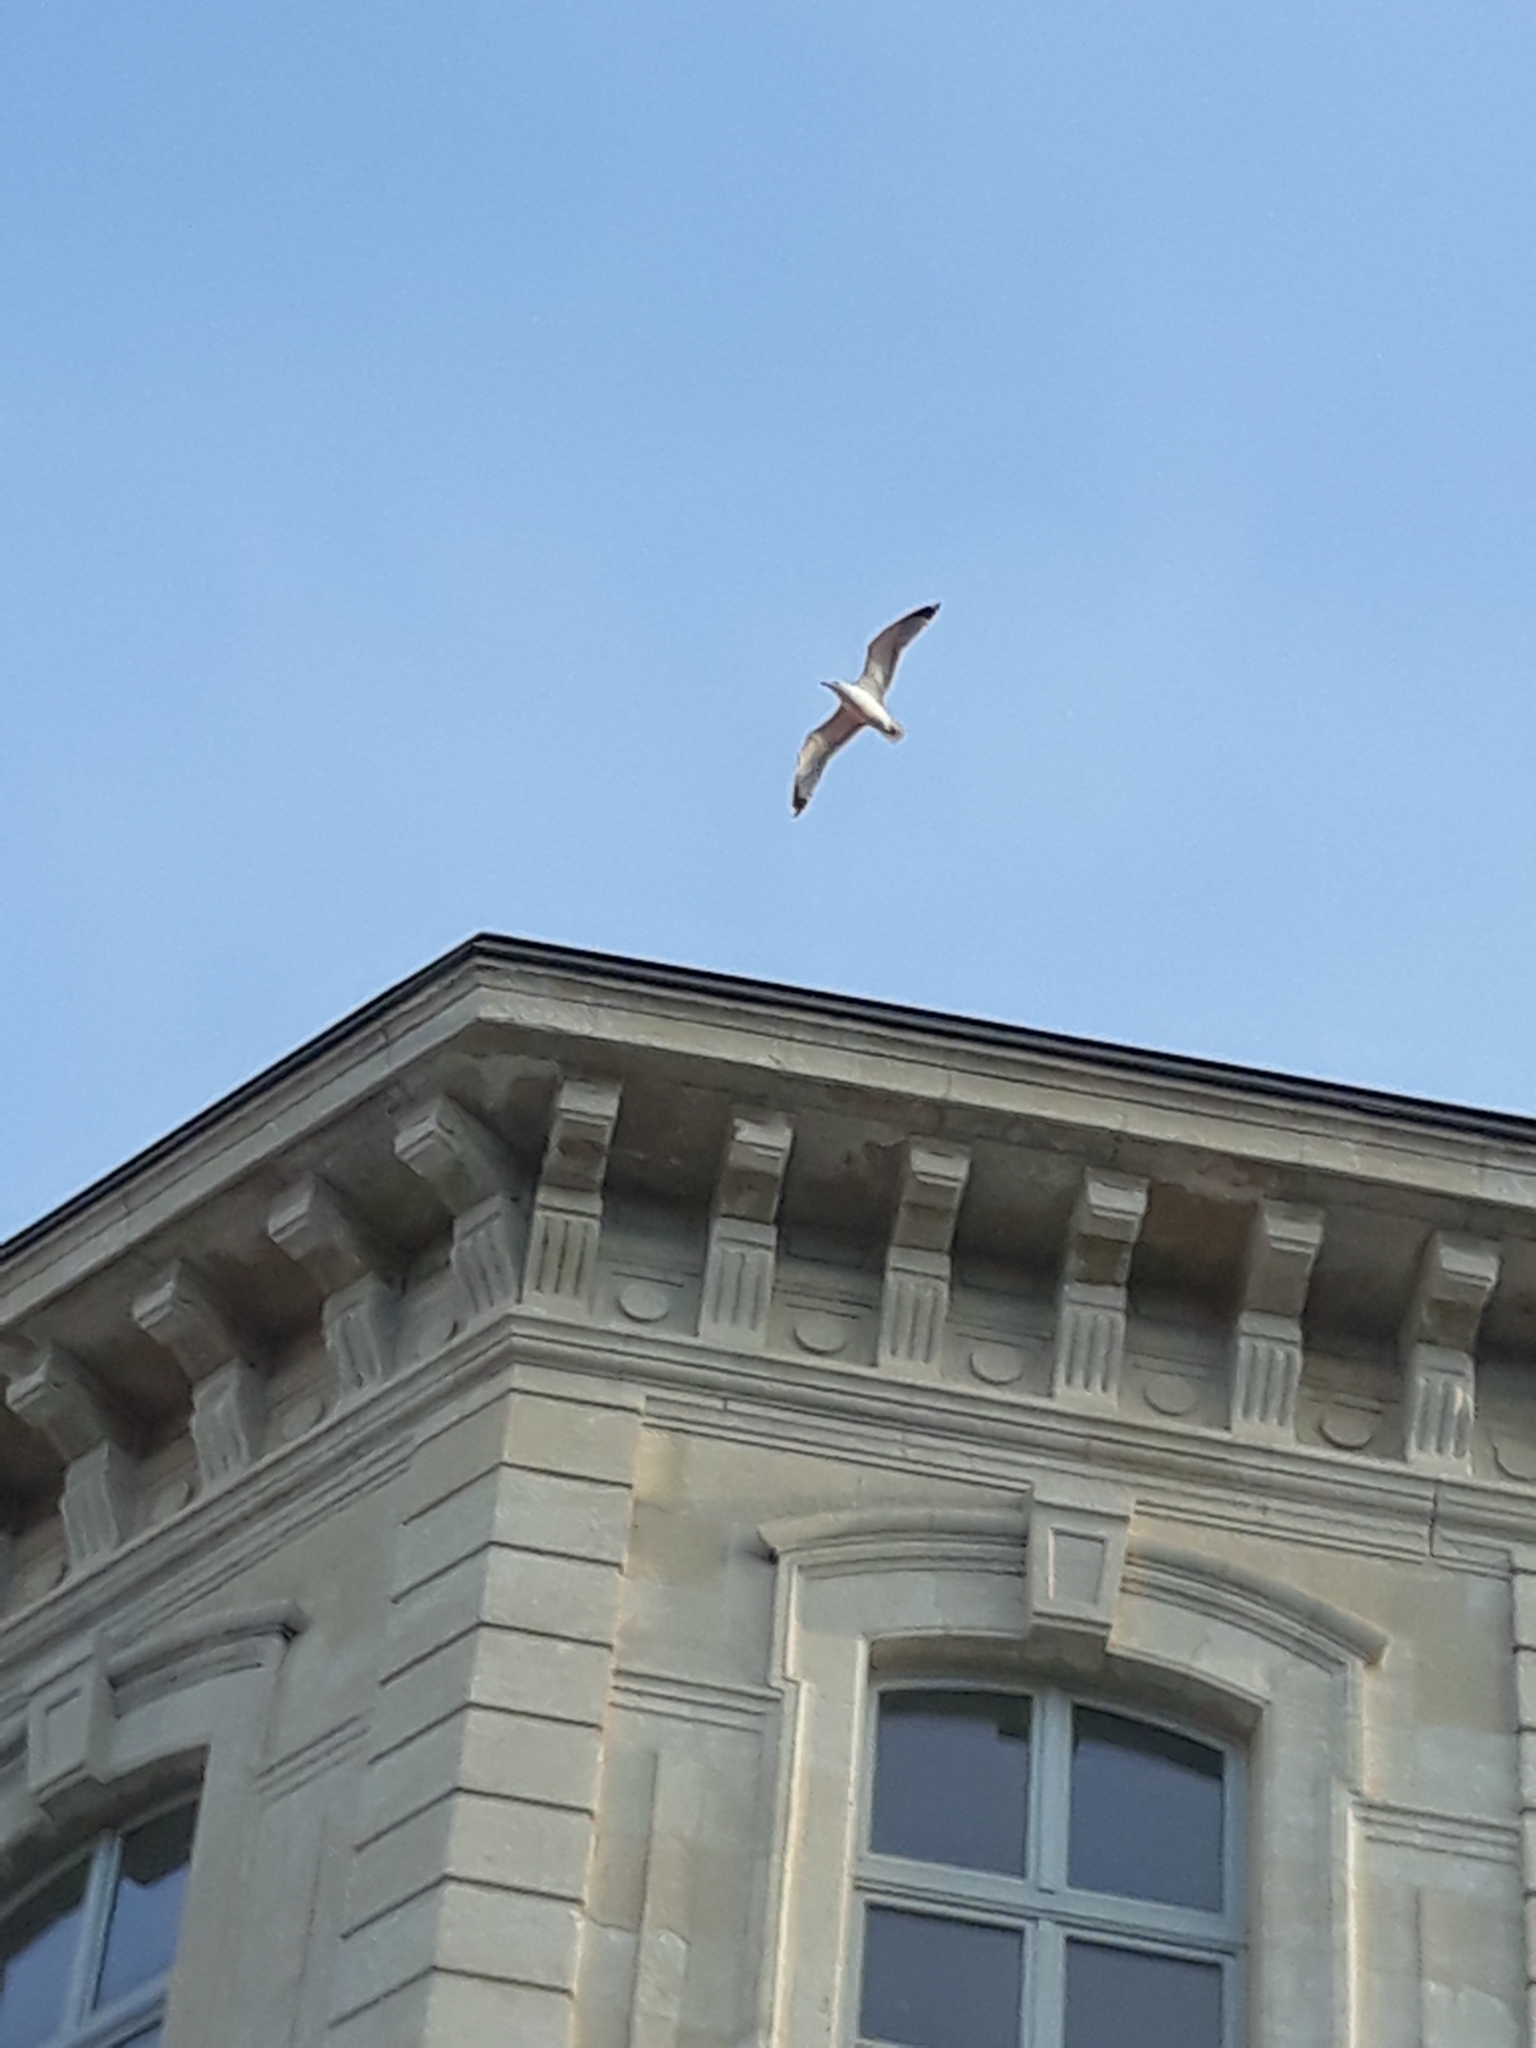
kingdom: Animalia
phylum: Chordata
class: Aves
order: Charadriiformes
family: Laridae
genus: Larus
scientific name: Larus michahellis
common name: Yellow-legged gull
